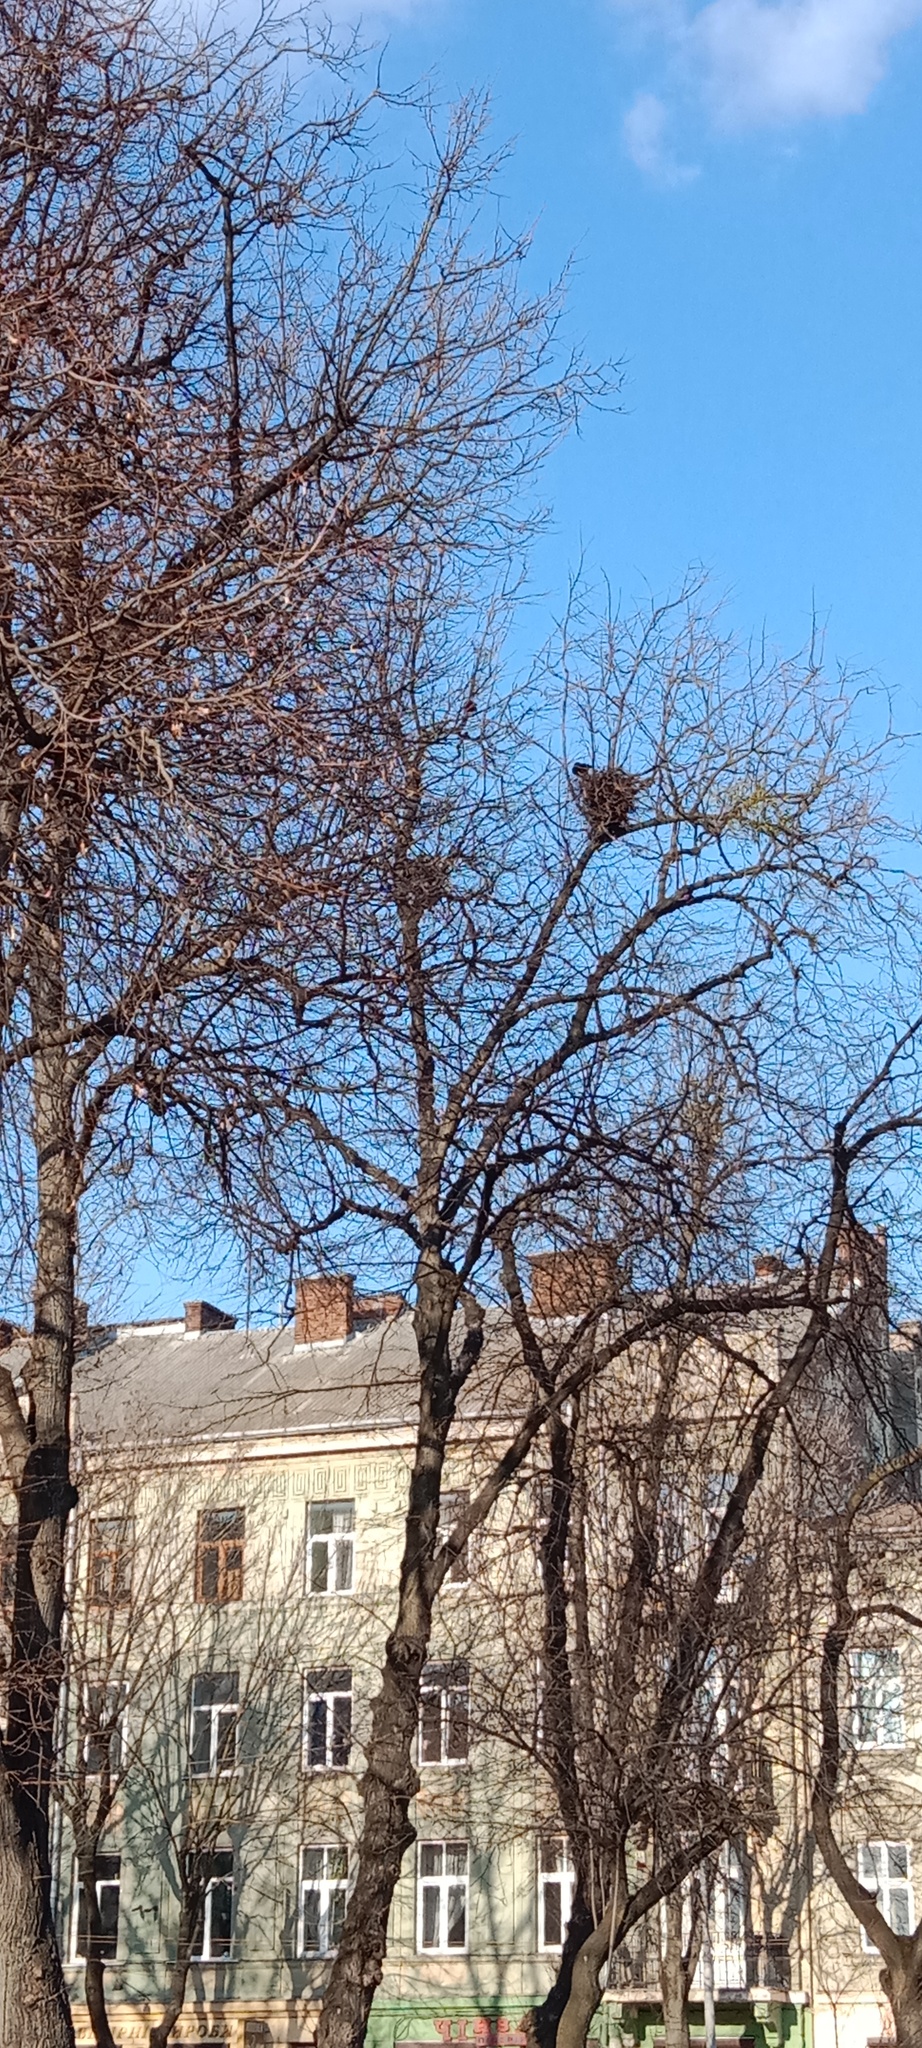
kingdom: Animalia
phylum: Chordata
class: Aves
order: Passeriformes
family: Corvidae
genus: Corvus
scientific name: Corvus frugilegus
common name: Rook
